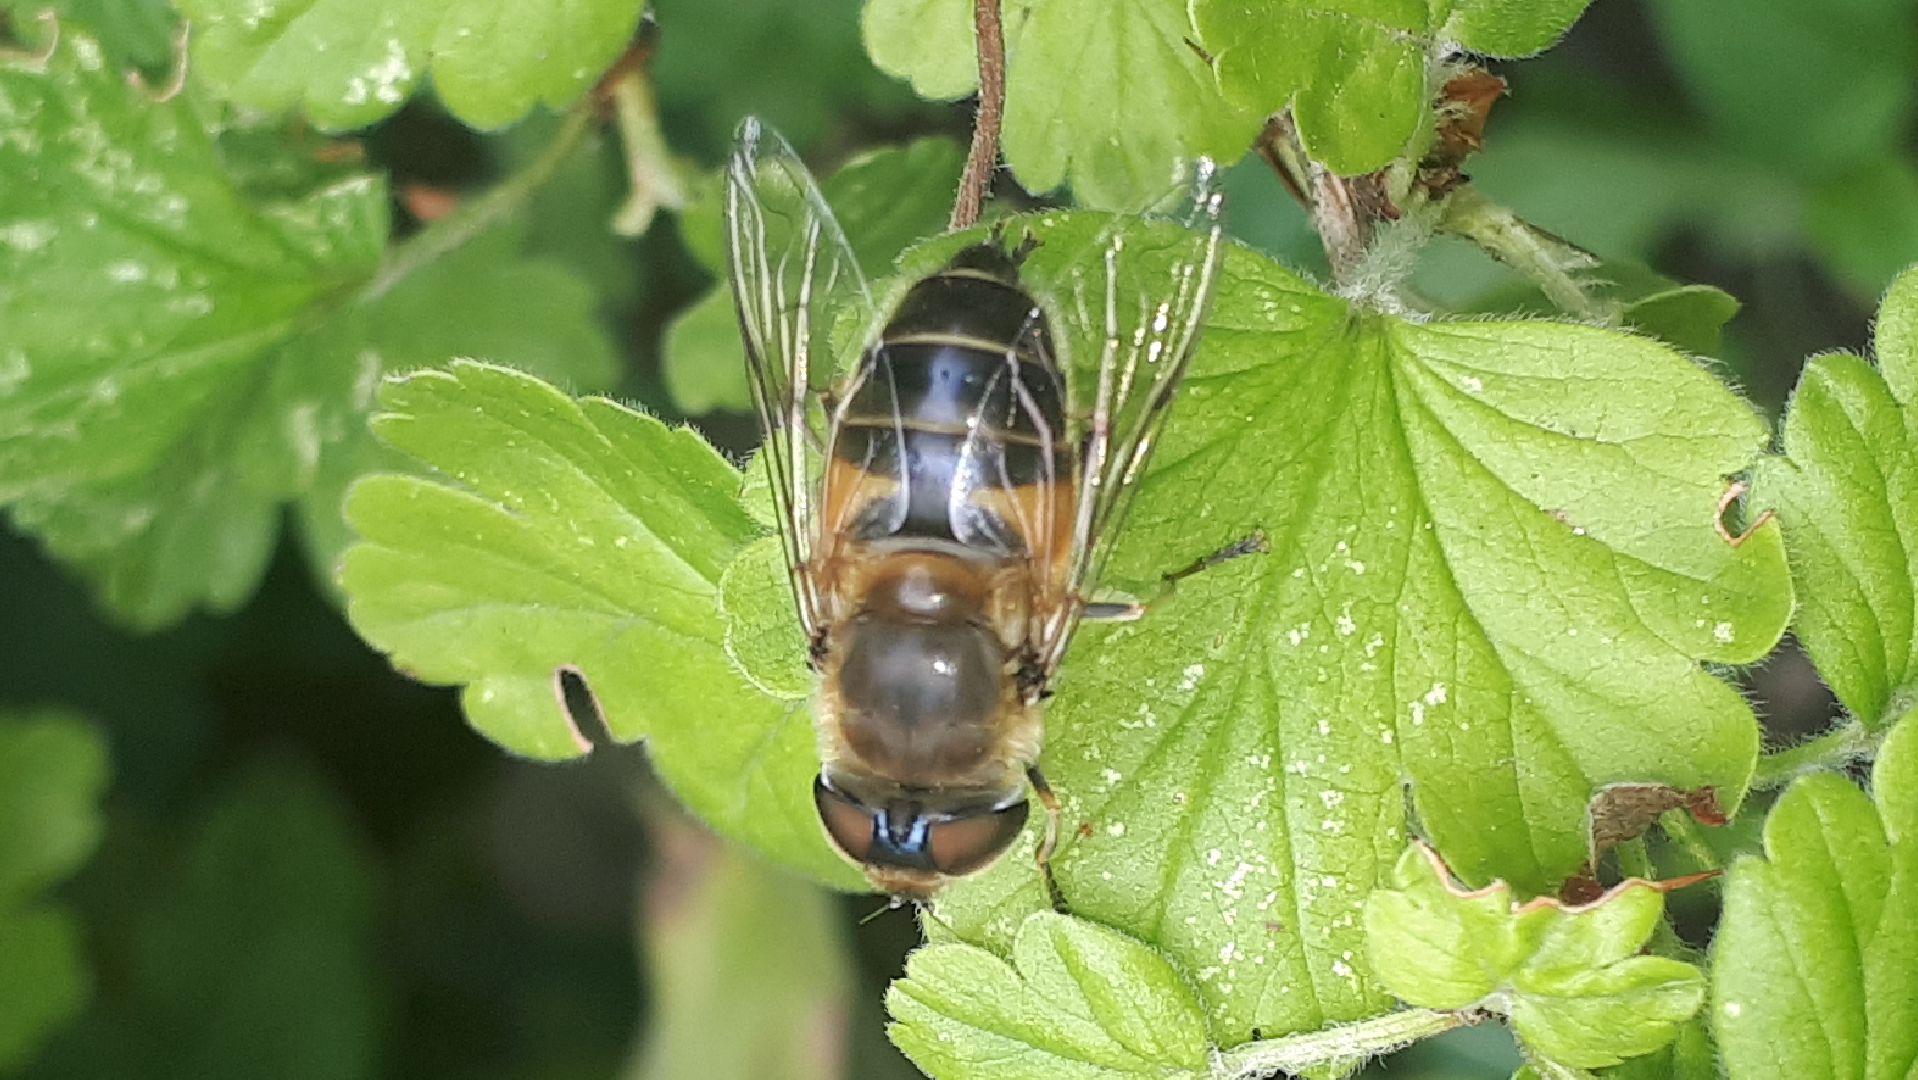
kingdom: Animalia
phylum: Arthropoda
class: Insecta
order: Diptera
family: Syrphidae
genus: Eristalis
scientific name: Eristalis pertinax
